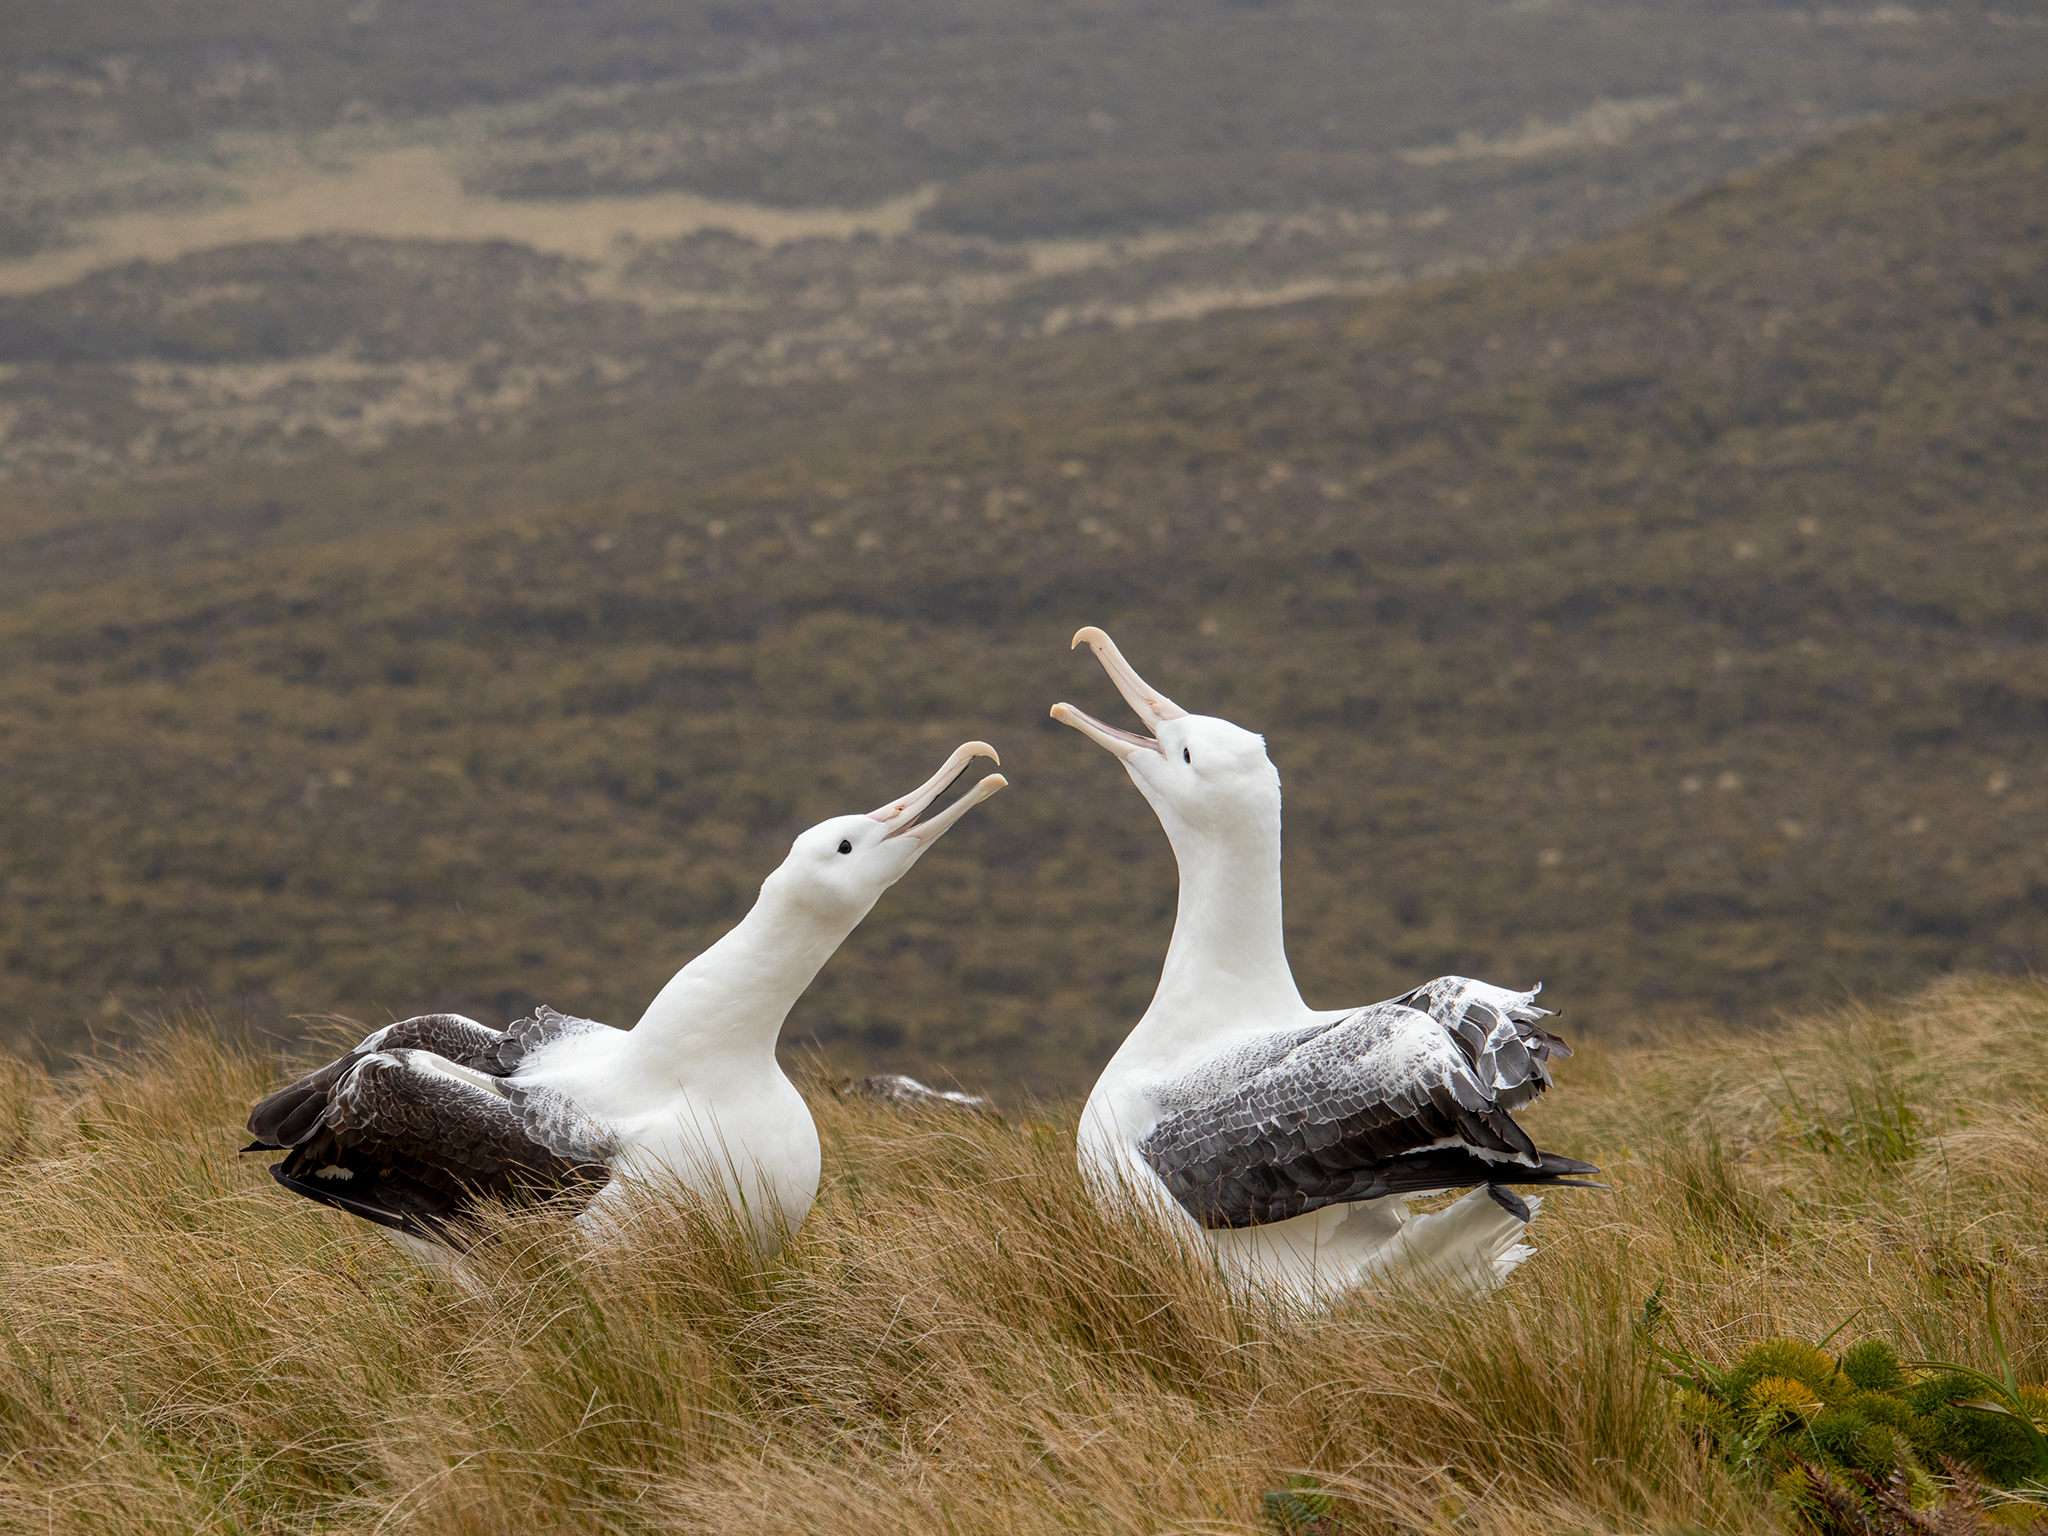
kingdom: Animalia
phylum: Chordata
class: Aves
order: Procellariiformes
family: Diomedeidae
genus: Diomedea
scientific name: Diomedea epomophora
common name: Southern royal albatross
